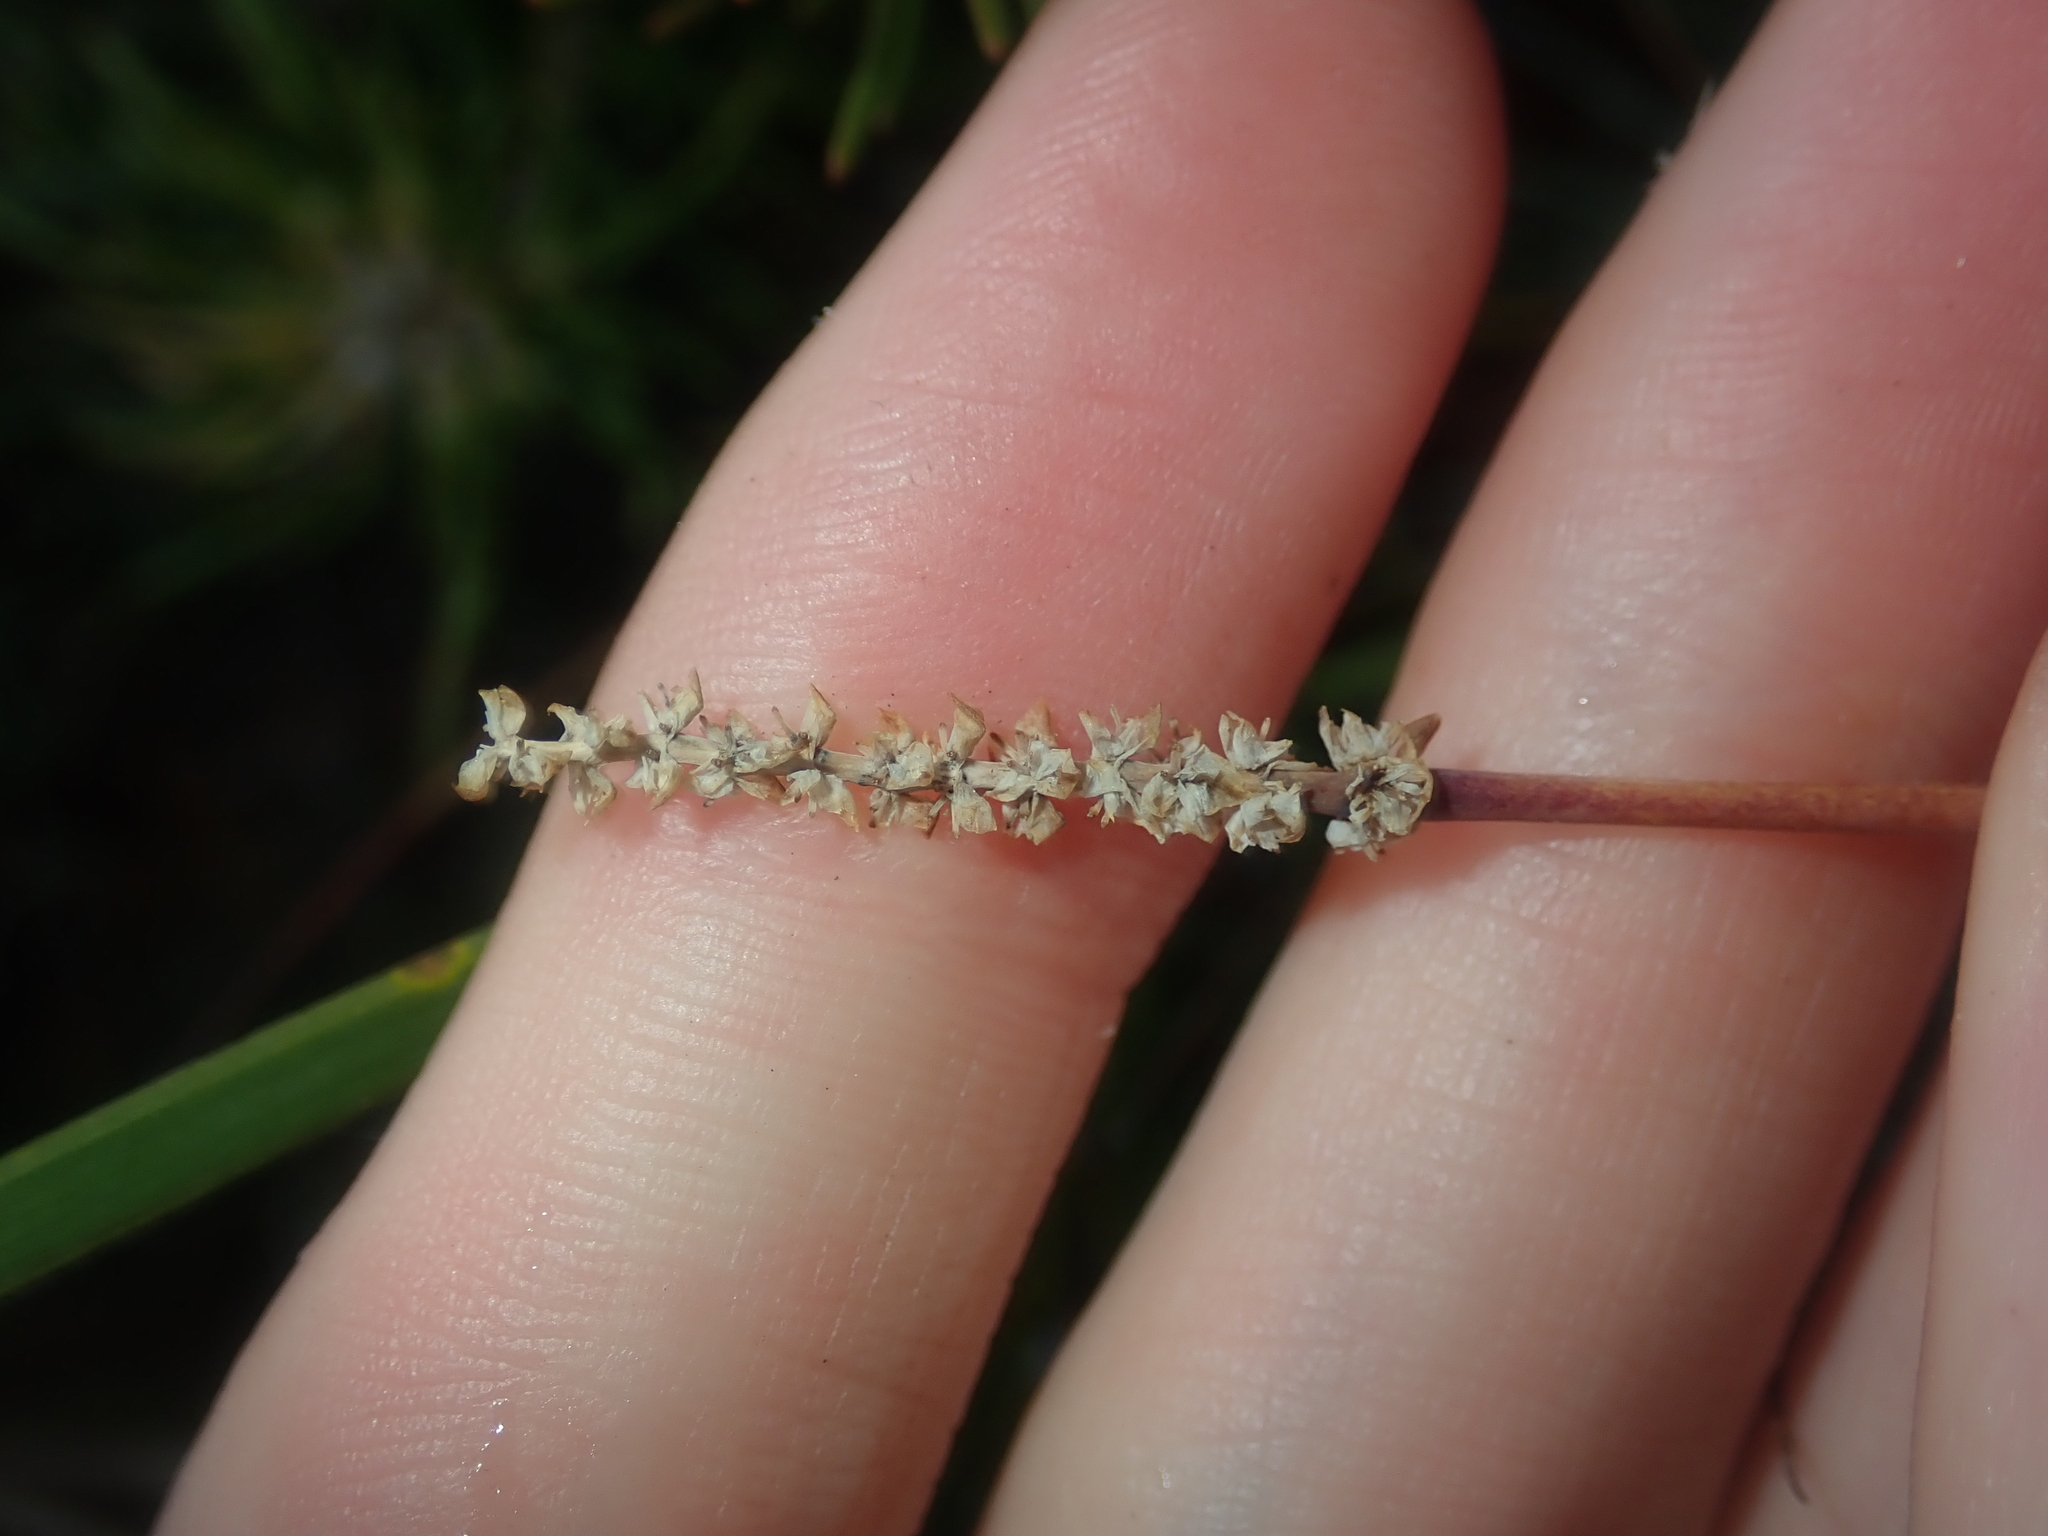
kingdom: Plantae
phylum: Tracheophyta
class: Liliopsida
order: Asparagales
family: Asparagaceae
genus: Lomandra
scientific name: Lomandra preissii
